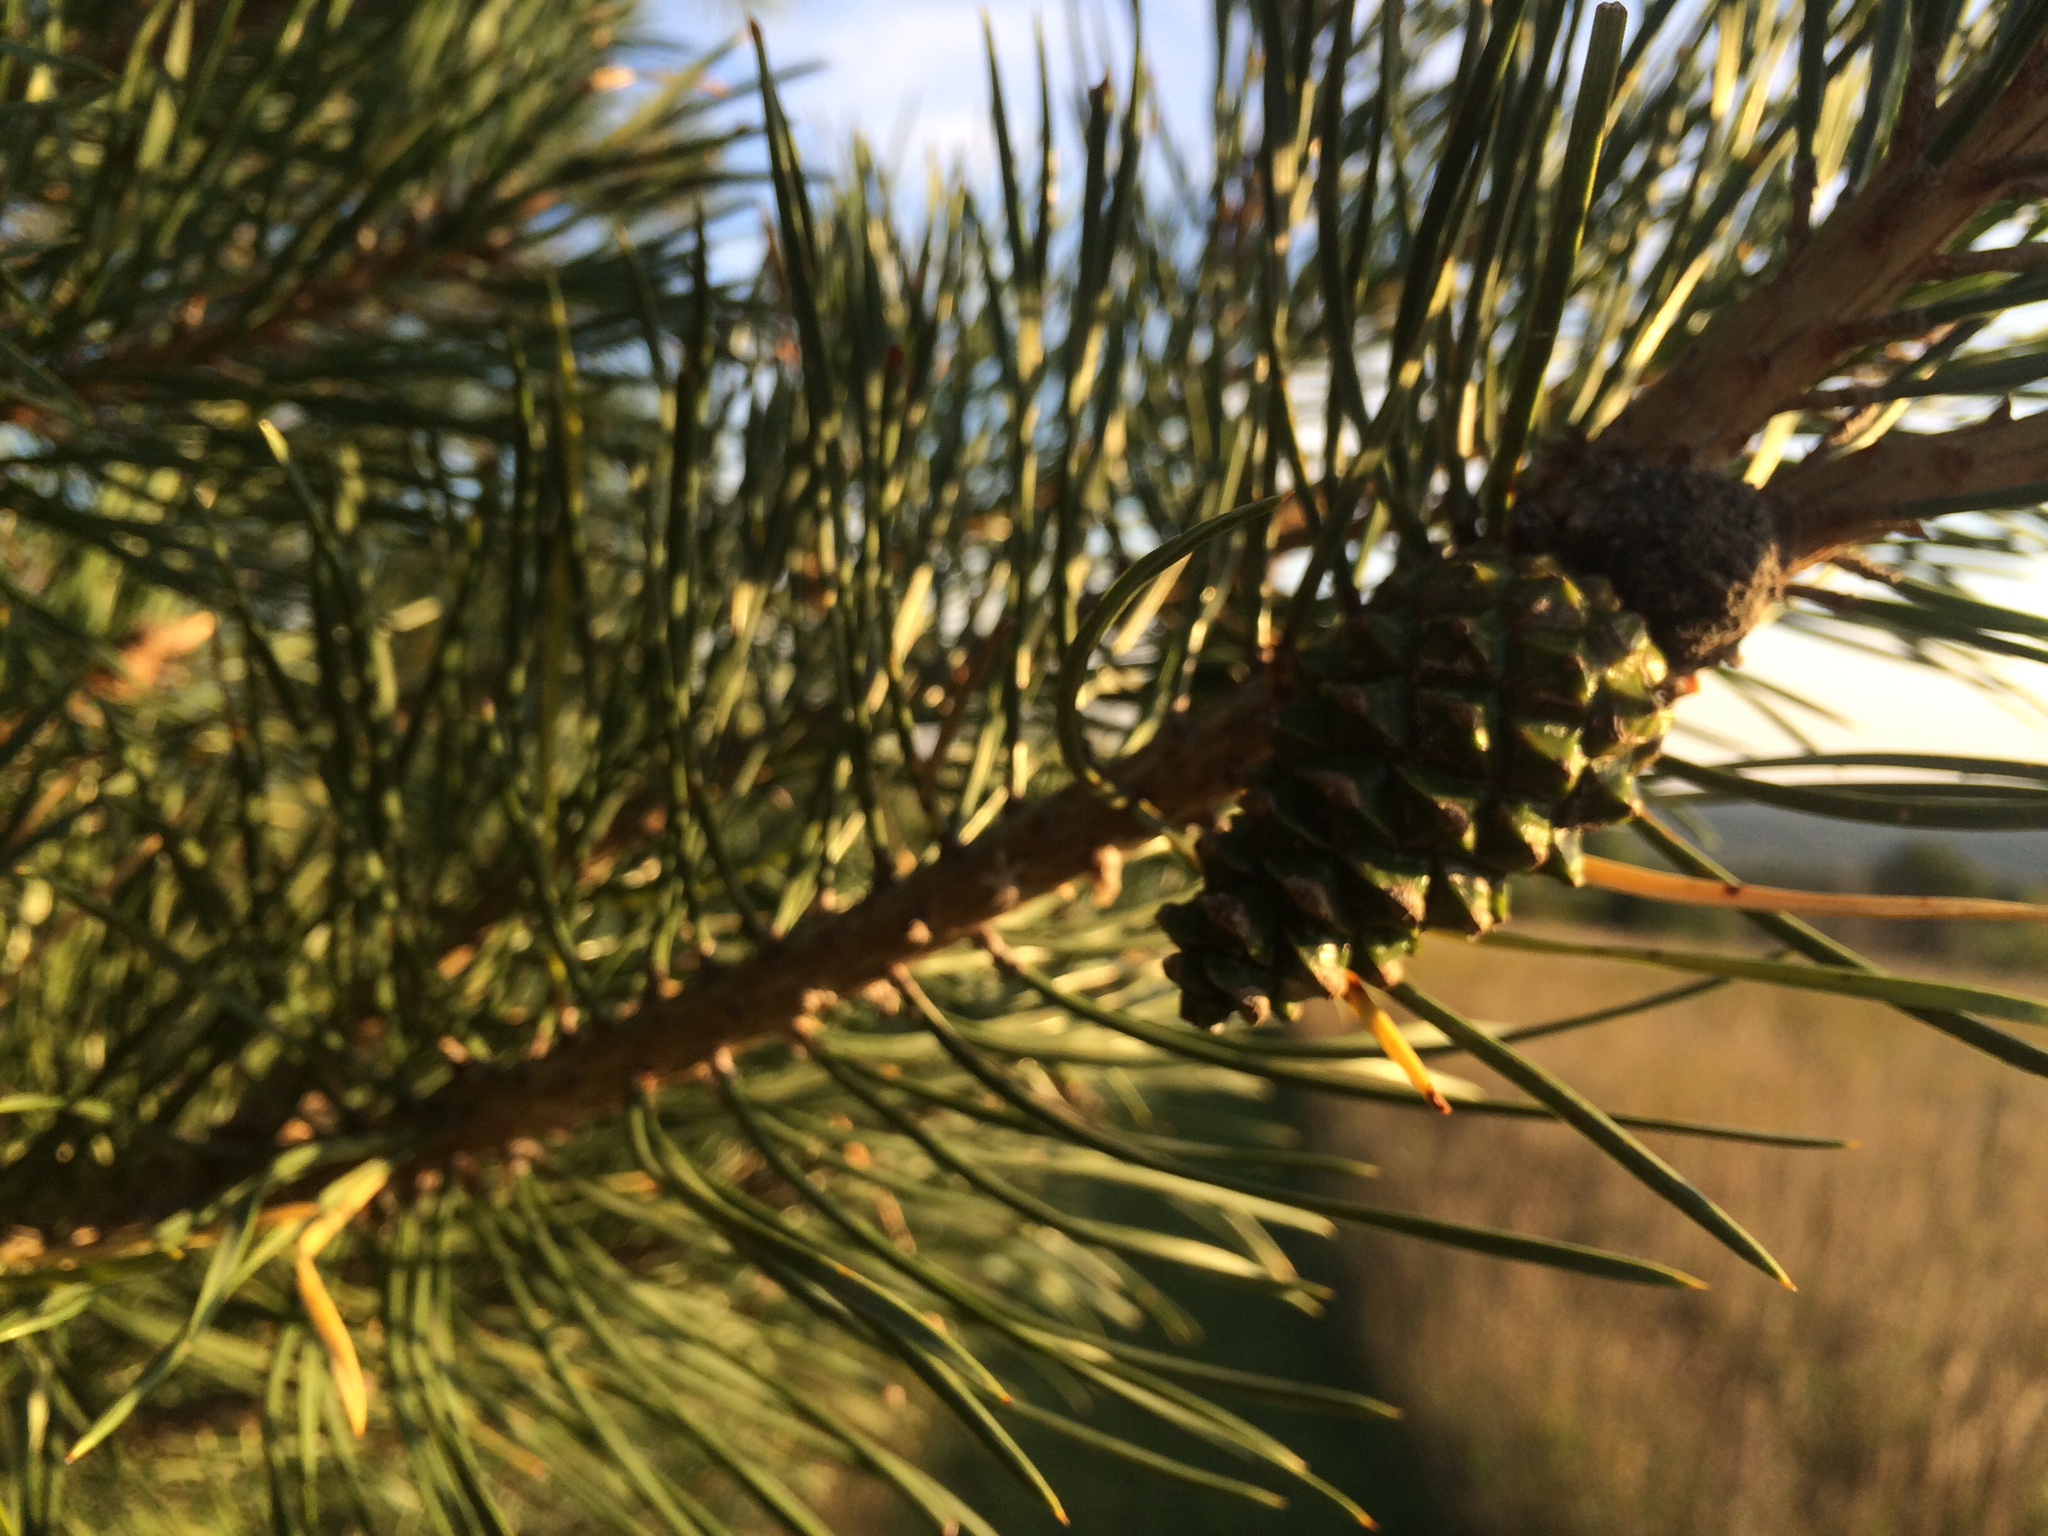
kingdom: Plantae
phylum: Tracheophyta
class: Pinopsida
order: Pinales
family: Pinaceae
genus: Pinus
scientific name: Pinus sylvestris
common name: Scots pine
